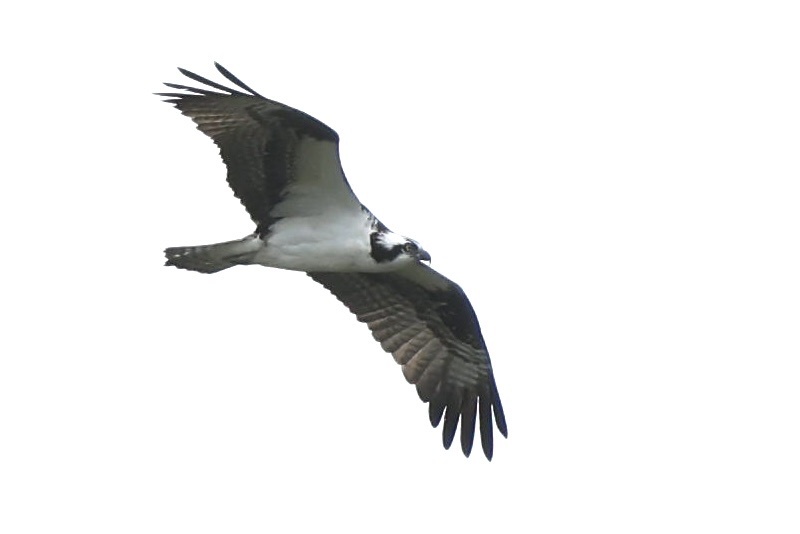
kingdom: Animalia
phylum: Chordata
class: Aves
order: Accipitriformes
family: Pandionidae
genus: Pandion
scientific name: Pandion haliaetus
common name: Osprey
